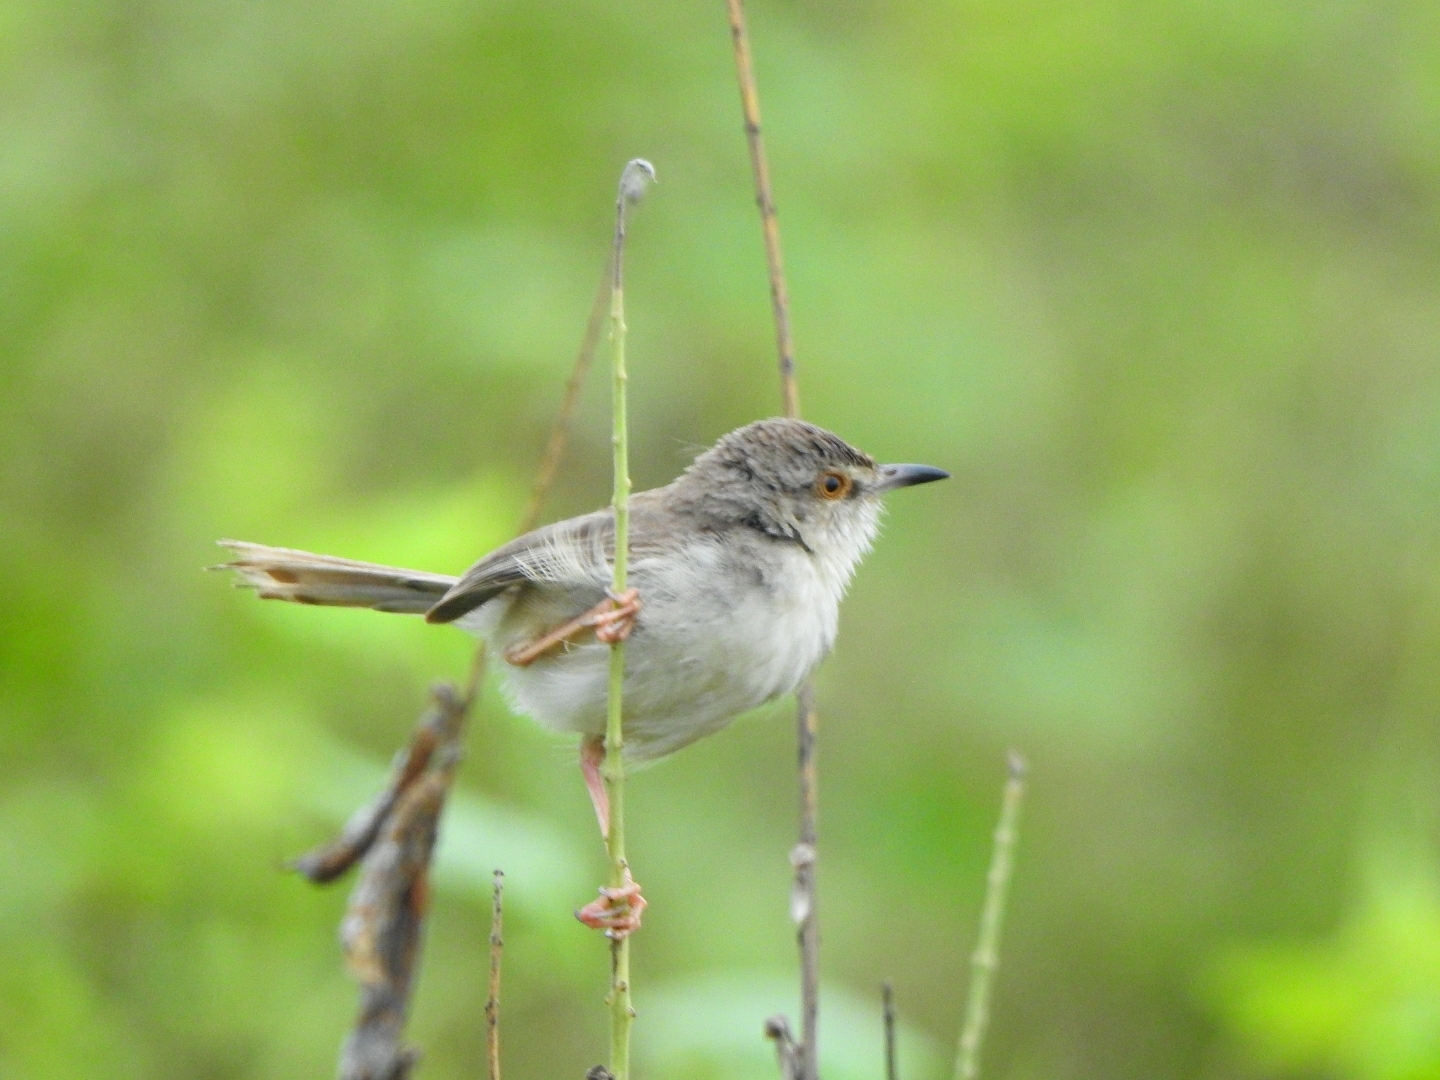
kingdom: Animalia
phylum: Chordata
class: Aves
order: Passeriformes
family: Cisticolidae
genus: Prinia
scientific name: Prinia inornata
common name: Plain prinia
